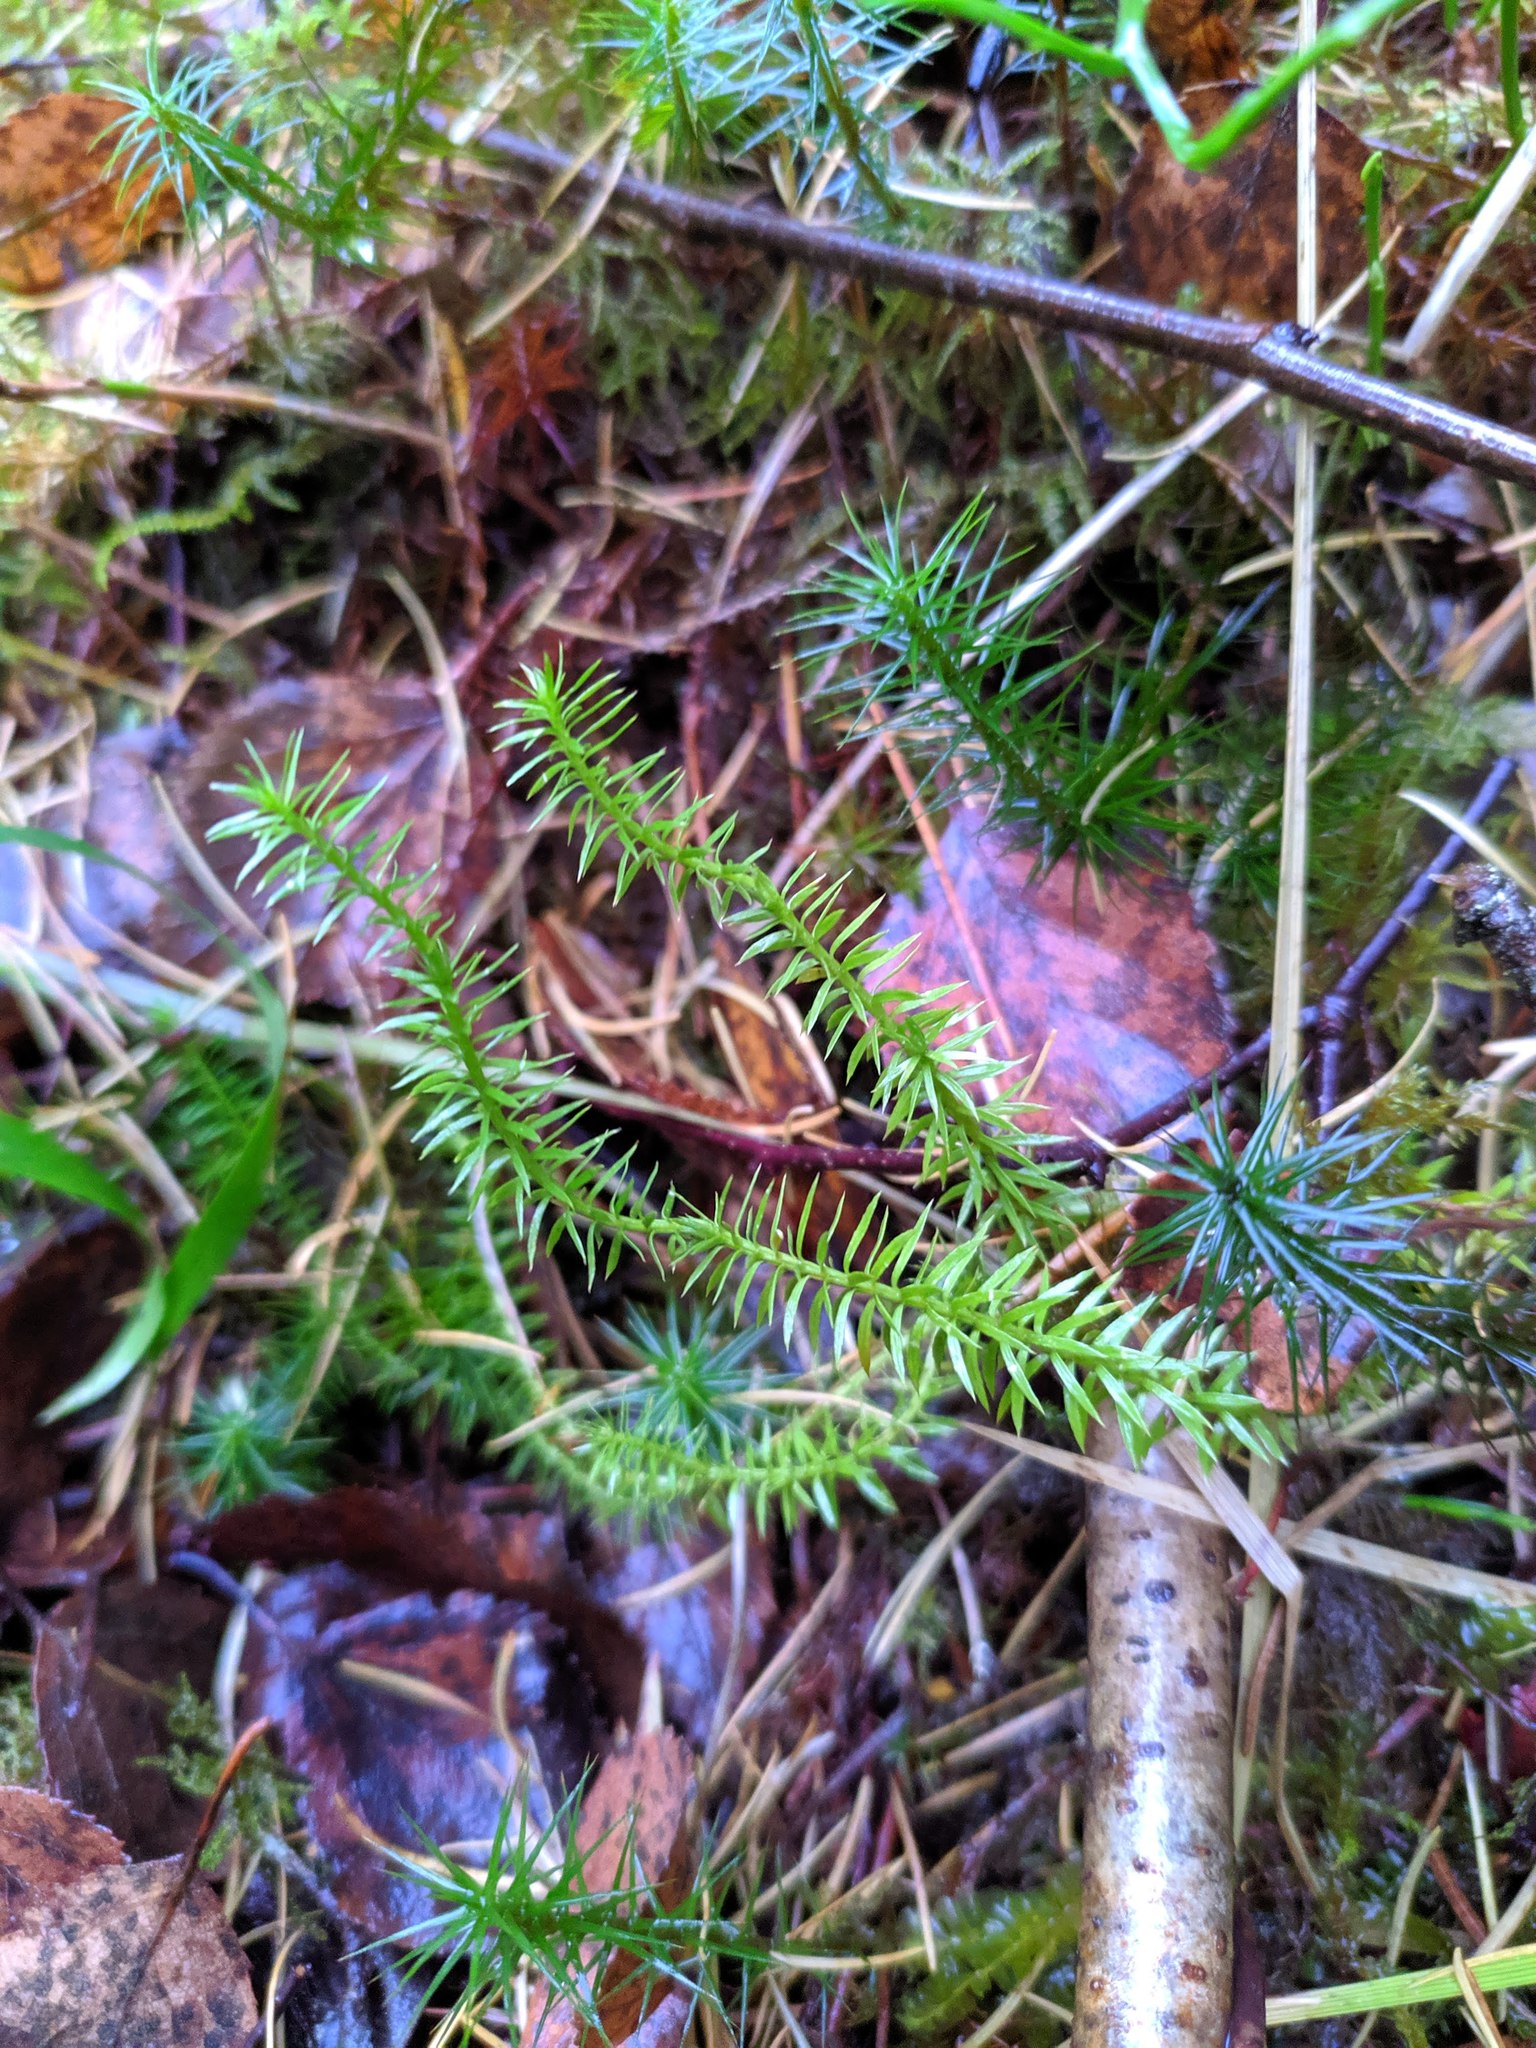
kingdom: Plantae
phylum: Tracheophyta
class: Lycopodiopsida
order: Lycopodiales
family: Lycopodiaceae
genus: Spinulum
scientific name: Spinulum annotinum
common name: Interrupted club-moss
